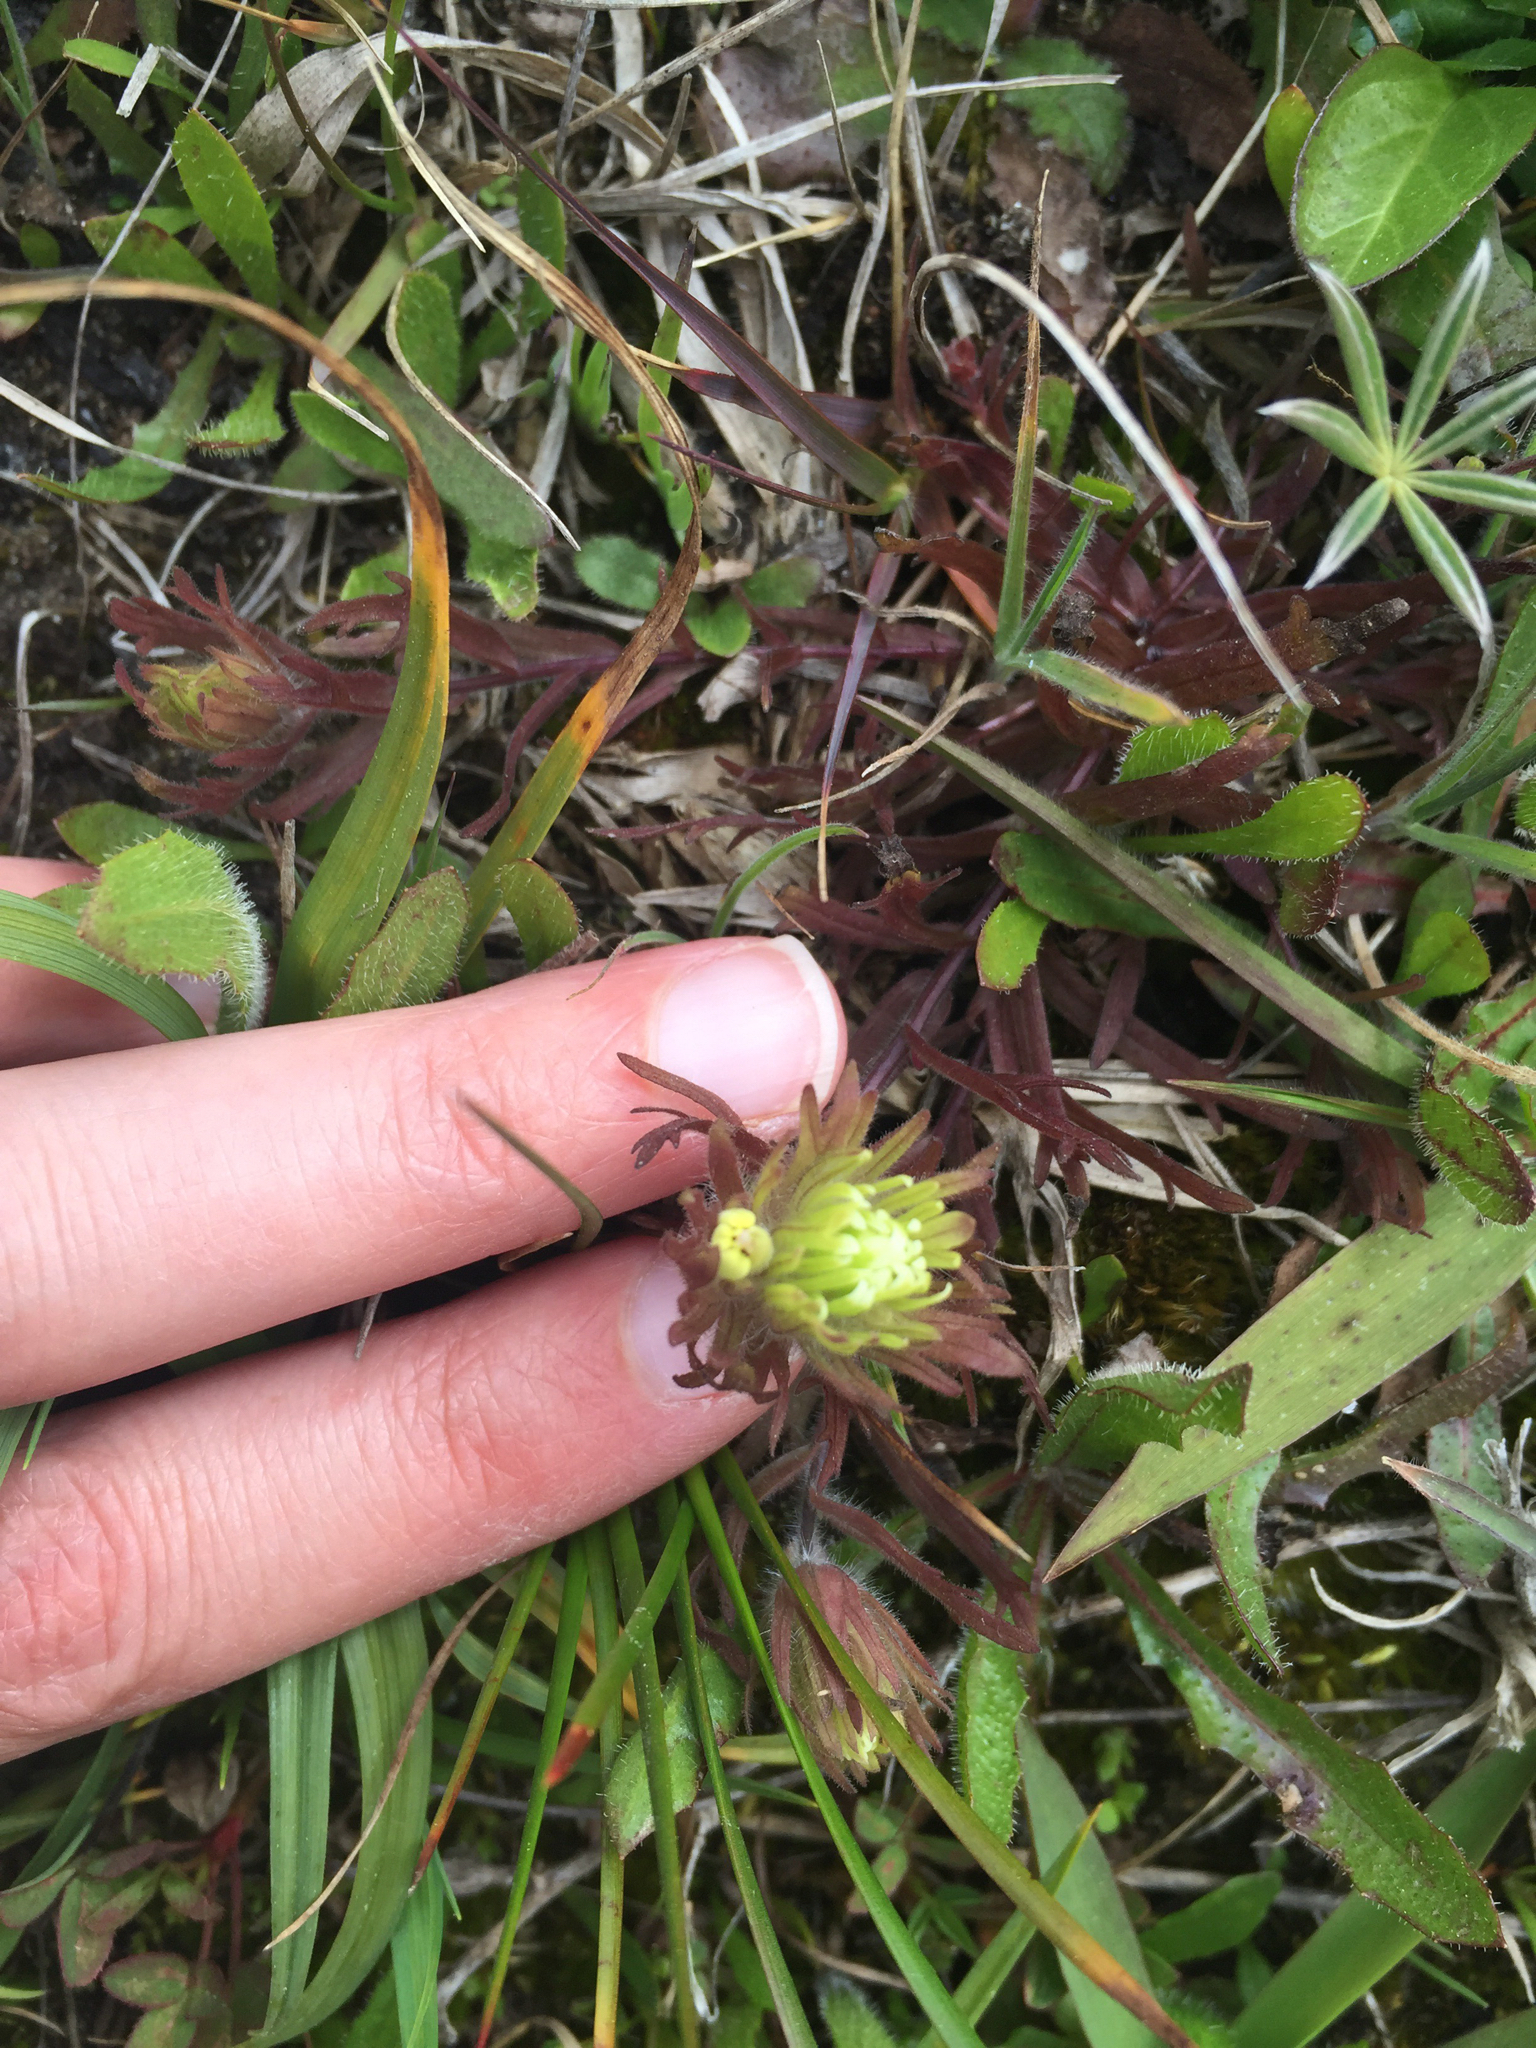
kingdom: Plantae
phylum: Tracheophyta
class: Magnoliopsida
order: Lamiales
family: Orobanchaceae
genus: Castilleja
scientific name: Castilleja ambigua
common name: Johnny-nip
